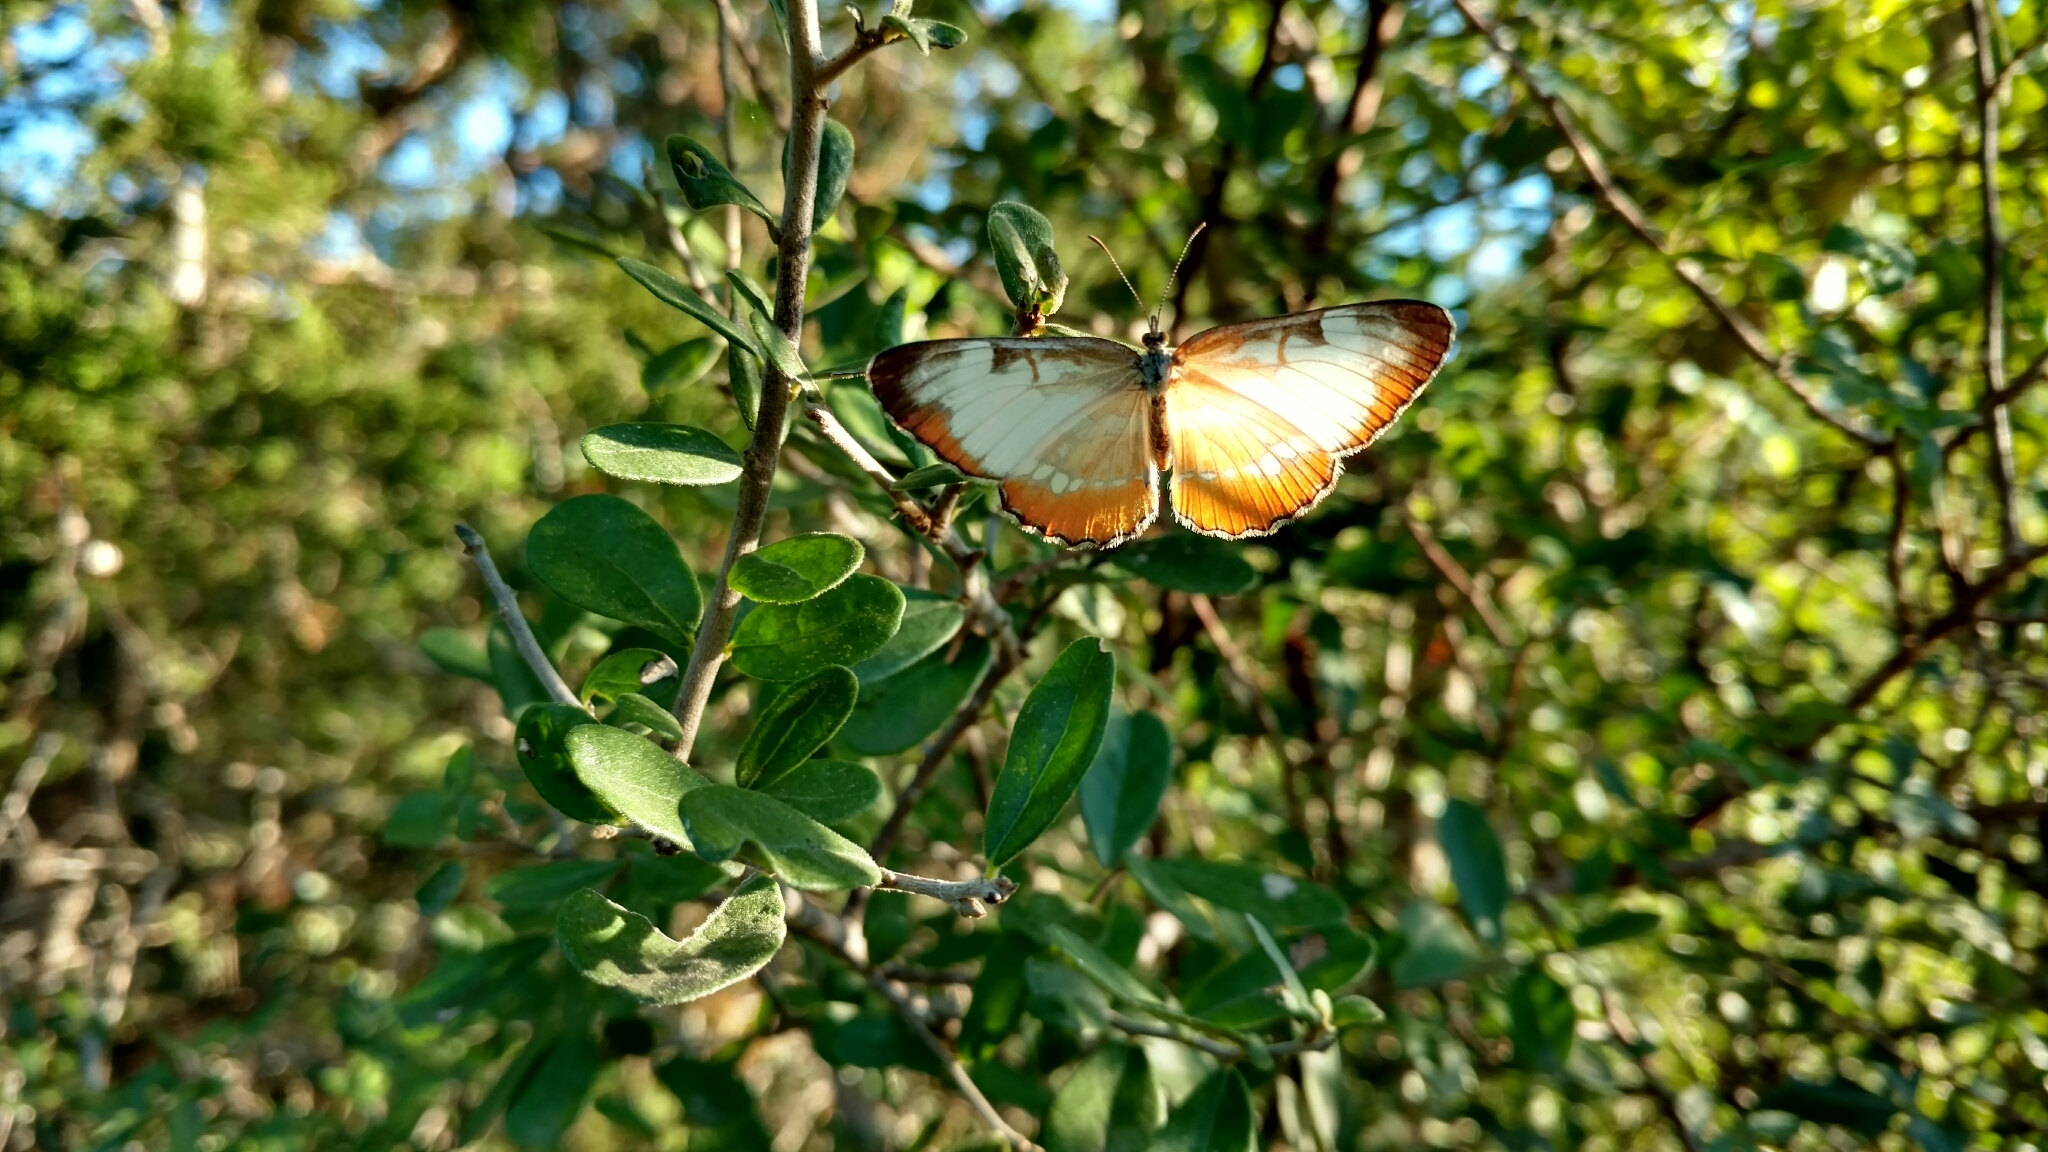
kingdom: Animalia
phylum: Arthropoda
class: Insecta
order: Lepidoptera
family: Nymphalidae
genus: Mestra
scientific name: Mestra amymone
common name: Common mestra
